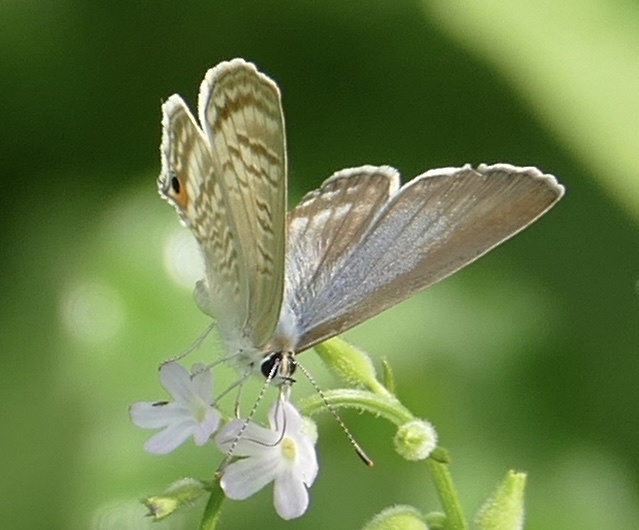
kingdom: Animalia
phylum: Arthropoda
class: Insecta
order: Lepidoptera
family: Lycaenidae
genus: Lampides
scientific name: Lampides boeticus
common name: Long-tailed blue
